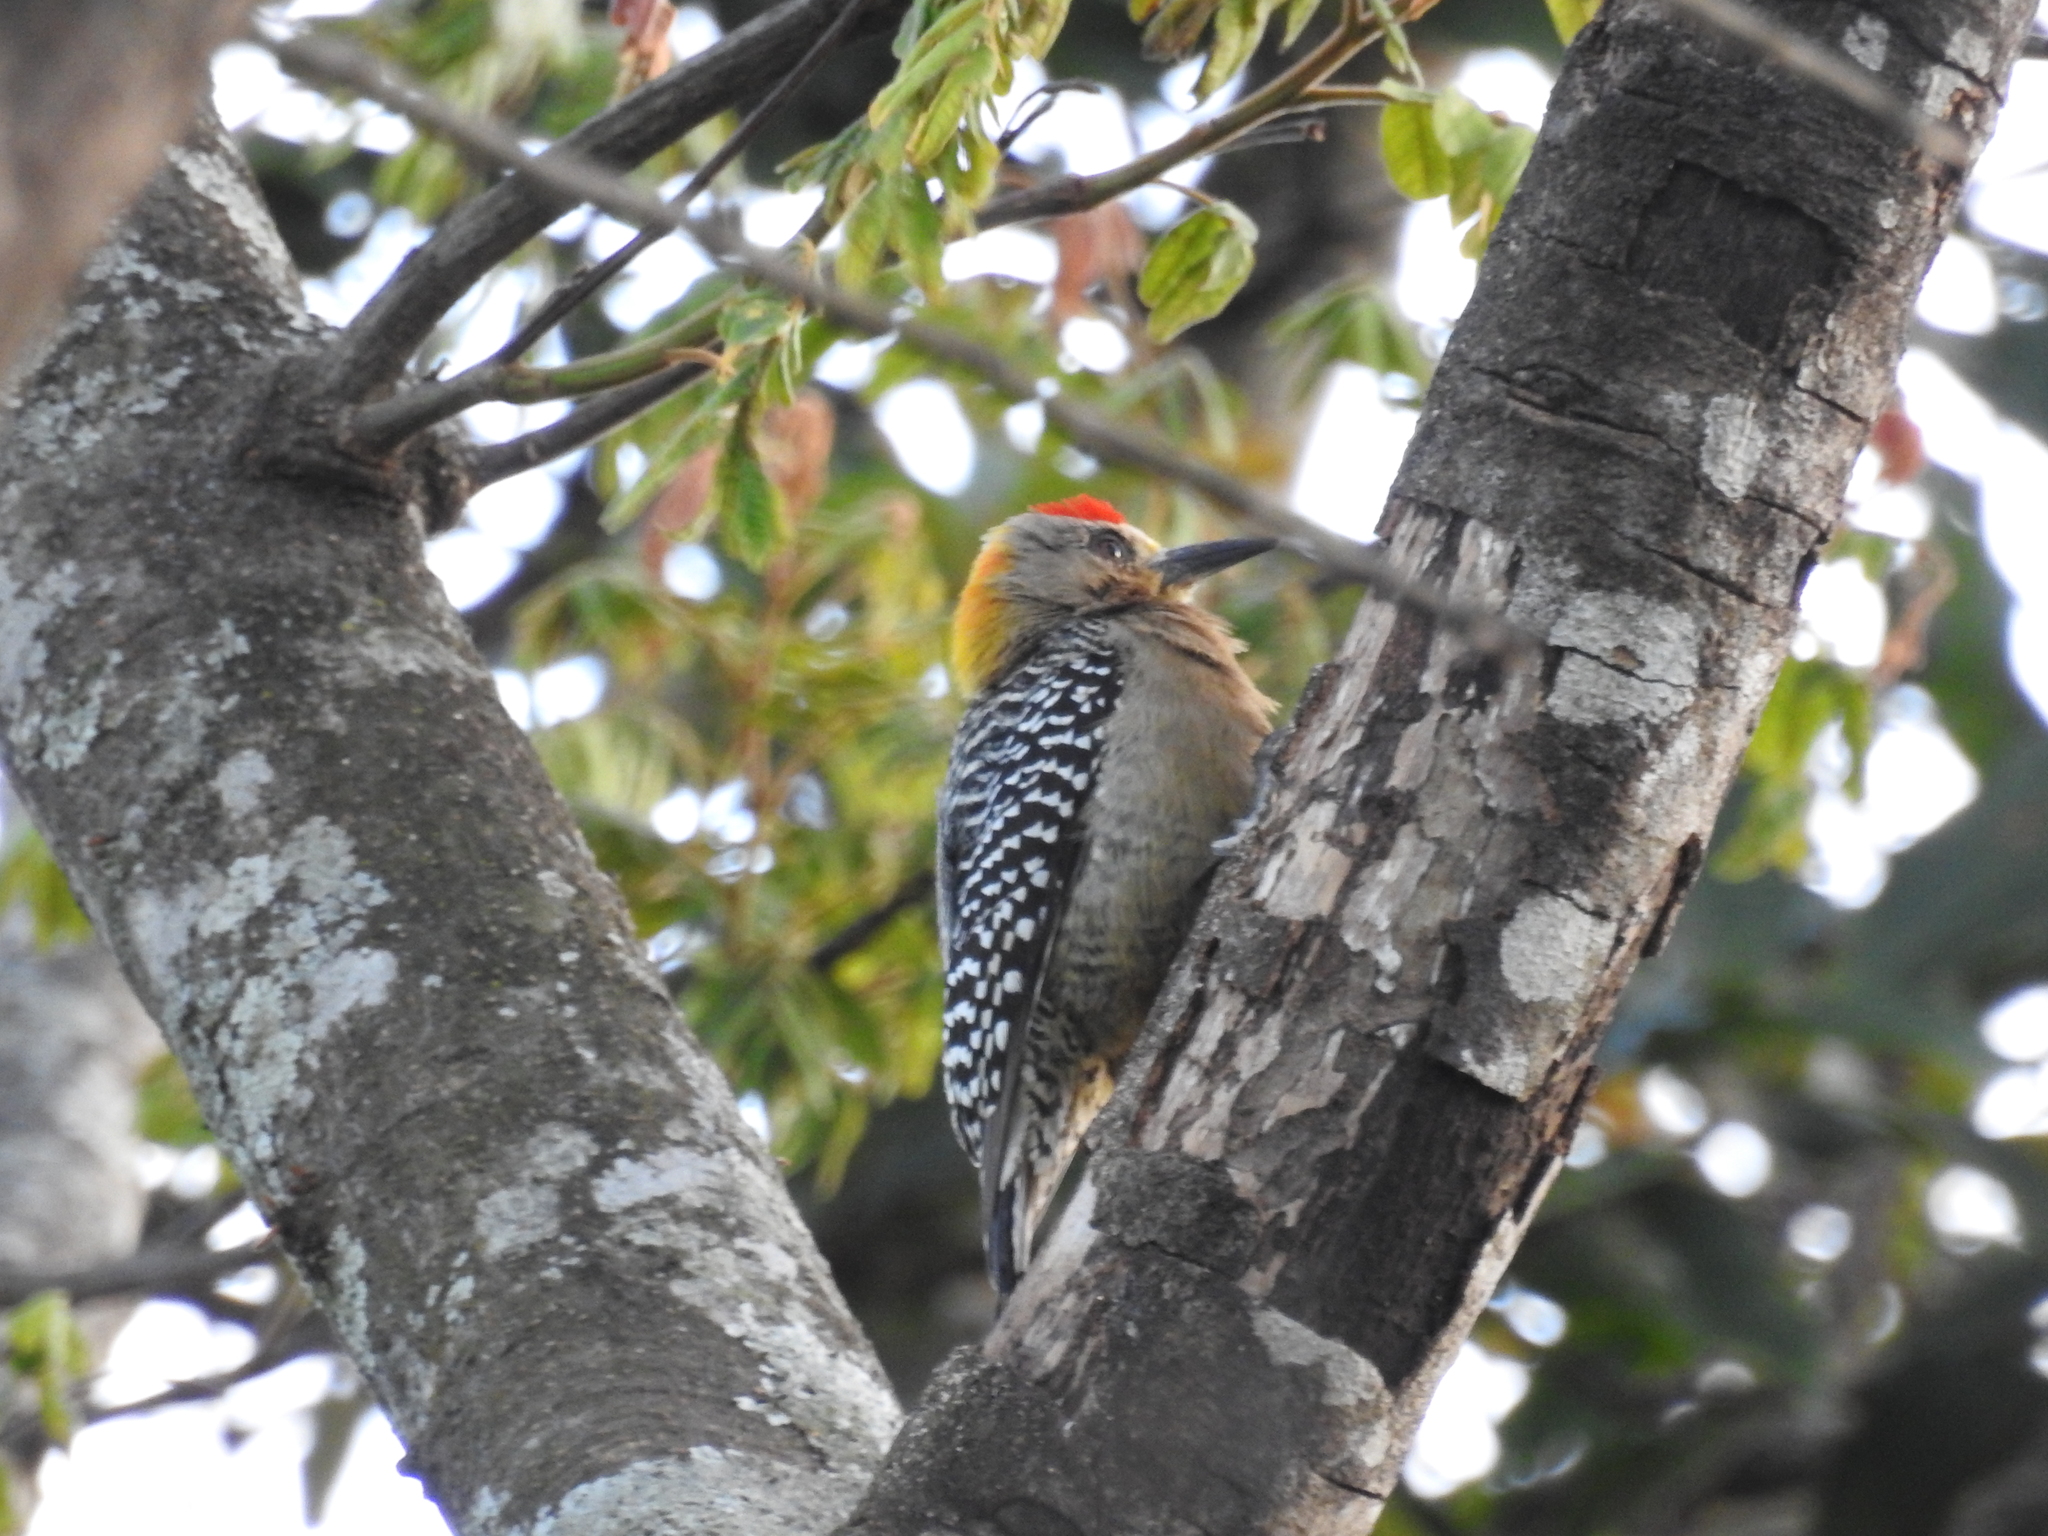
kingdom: Animalia
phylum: Chordata
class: Aves
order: Piciformes
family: Picidae
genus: Melanerpes
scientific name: Melanerpes hoffmannii
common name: Hoffmann's woodpecker
